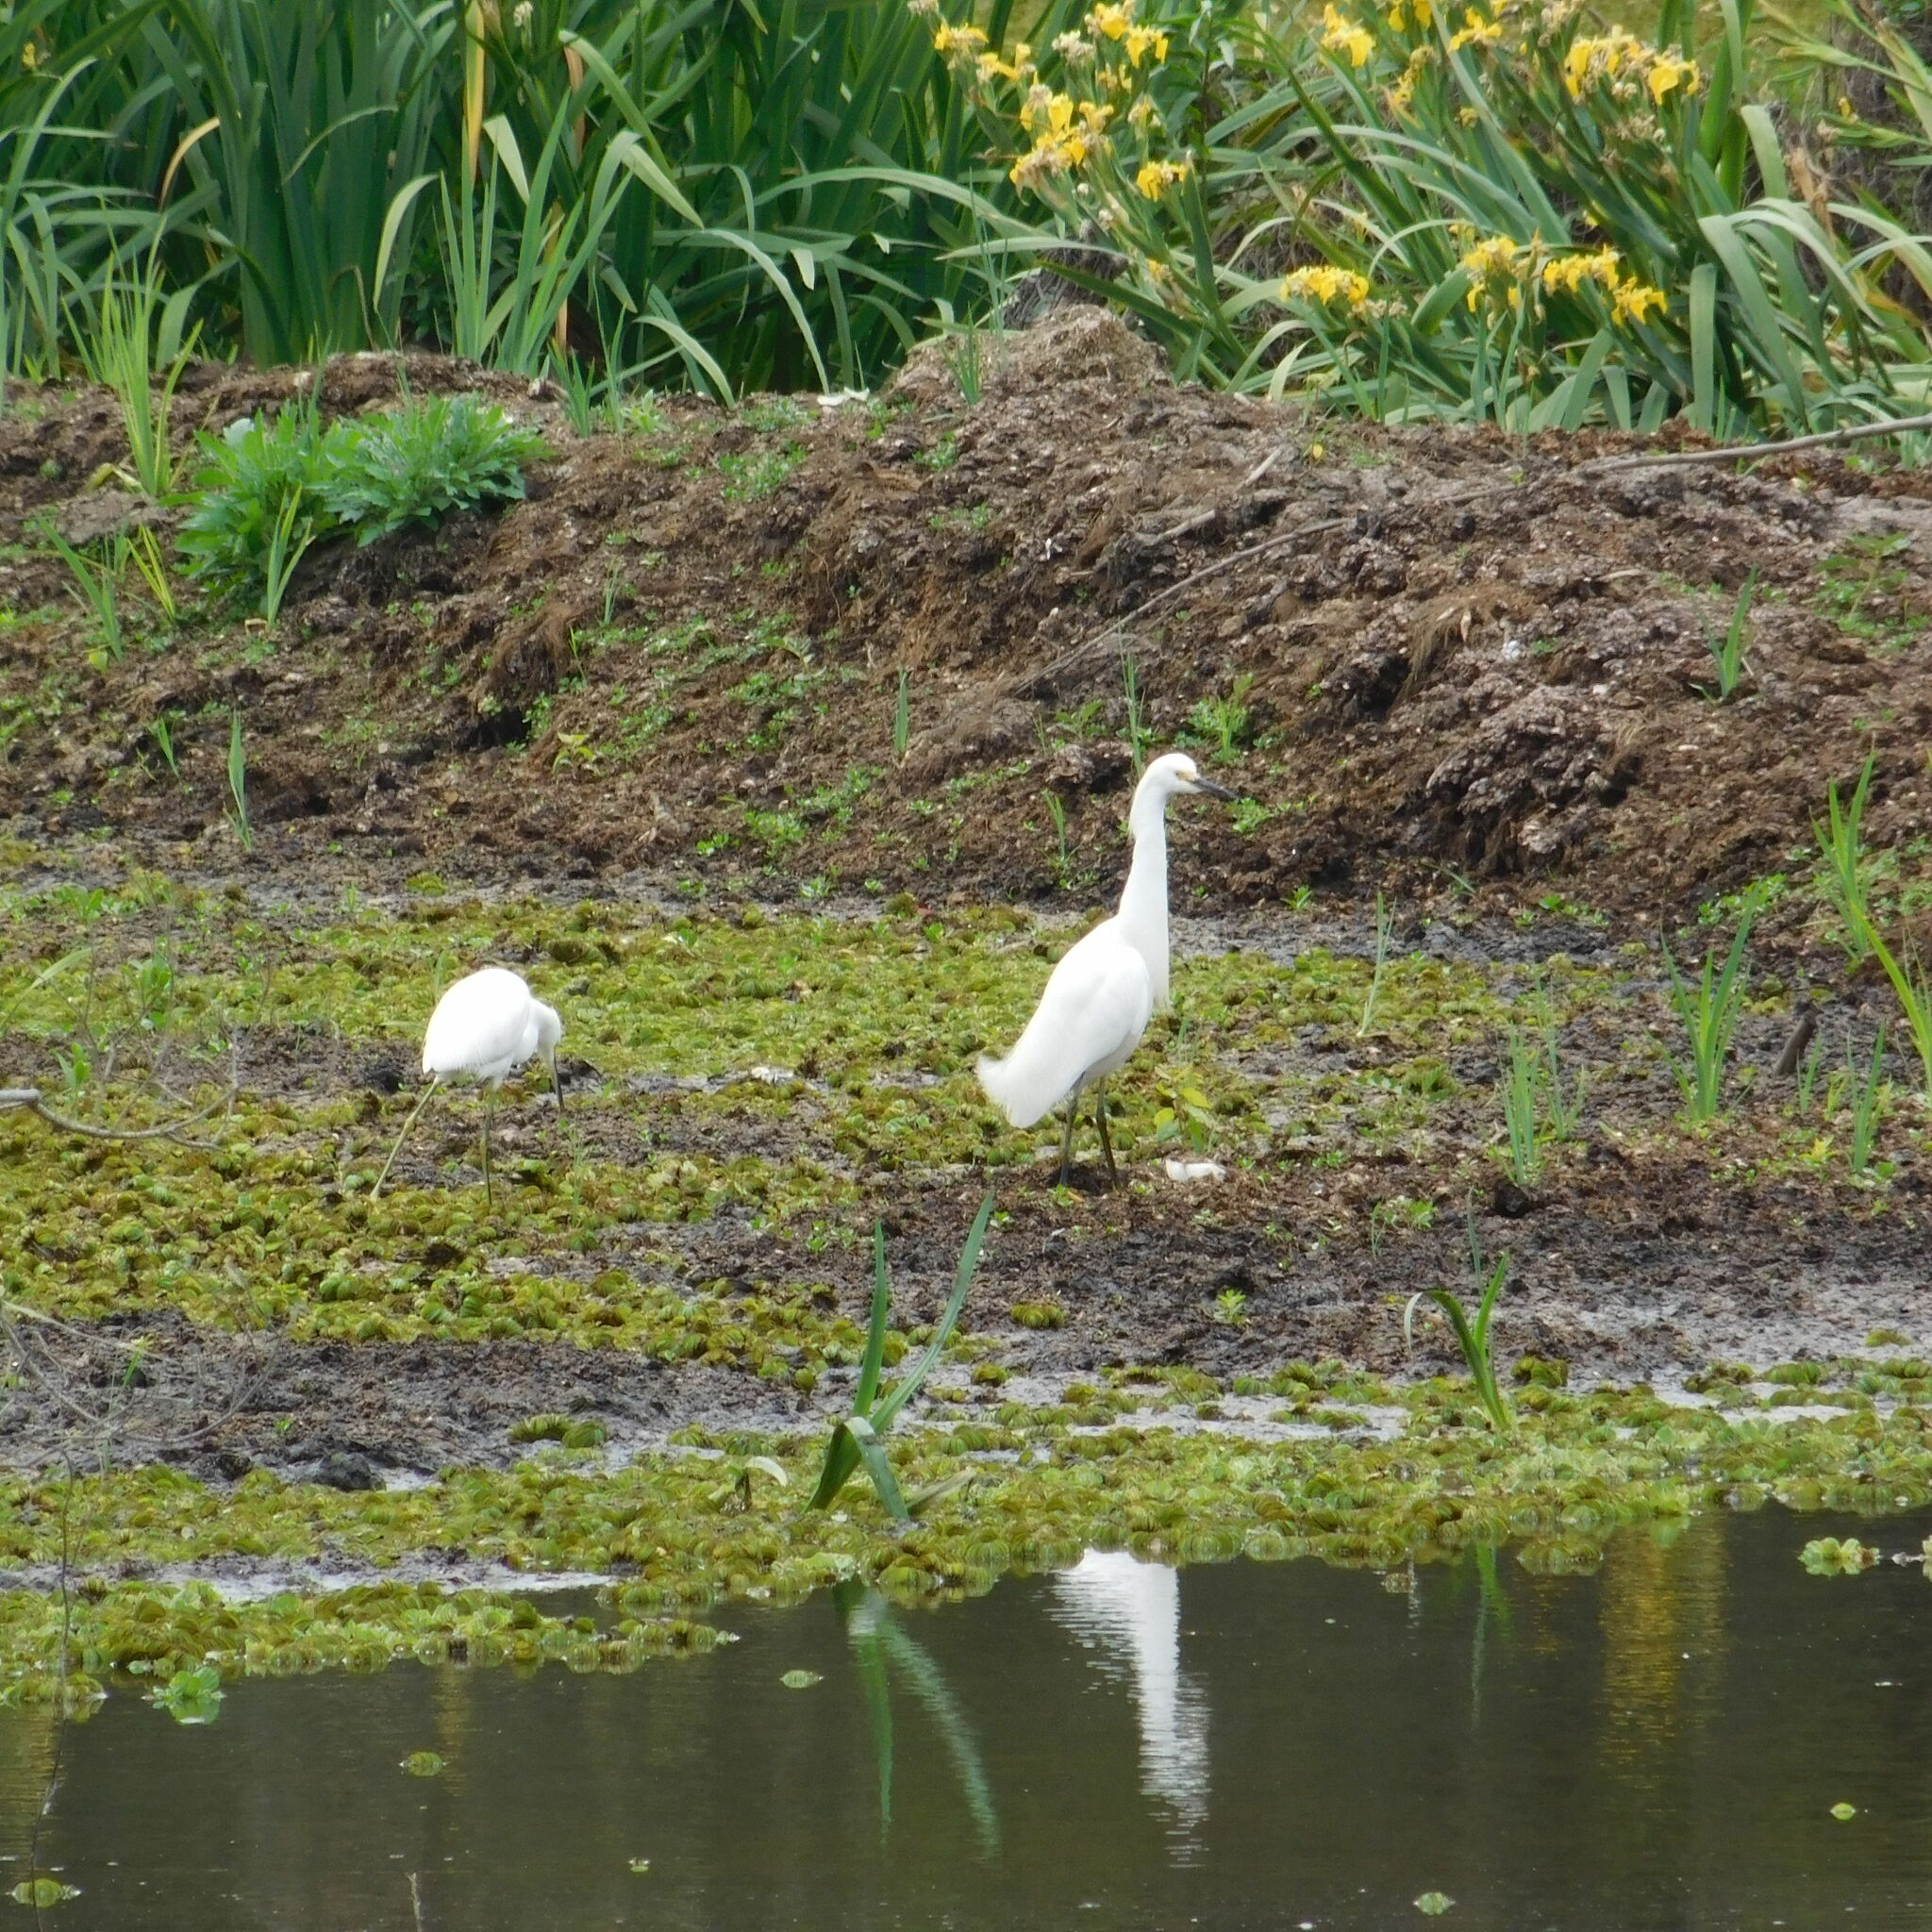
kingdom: Animalia
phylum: Chordata
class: Aves
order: Pelecaniformes
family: Ardeidae
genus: Egretta
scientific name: Egretta thula
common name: Snowy egret
